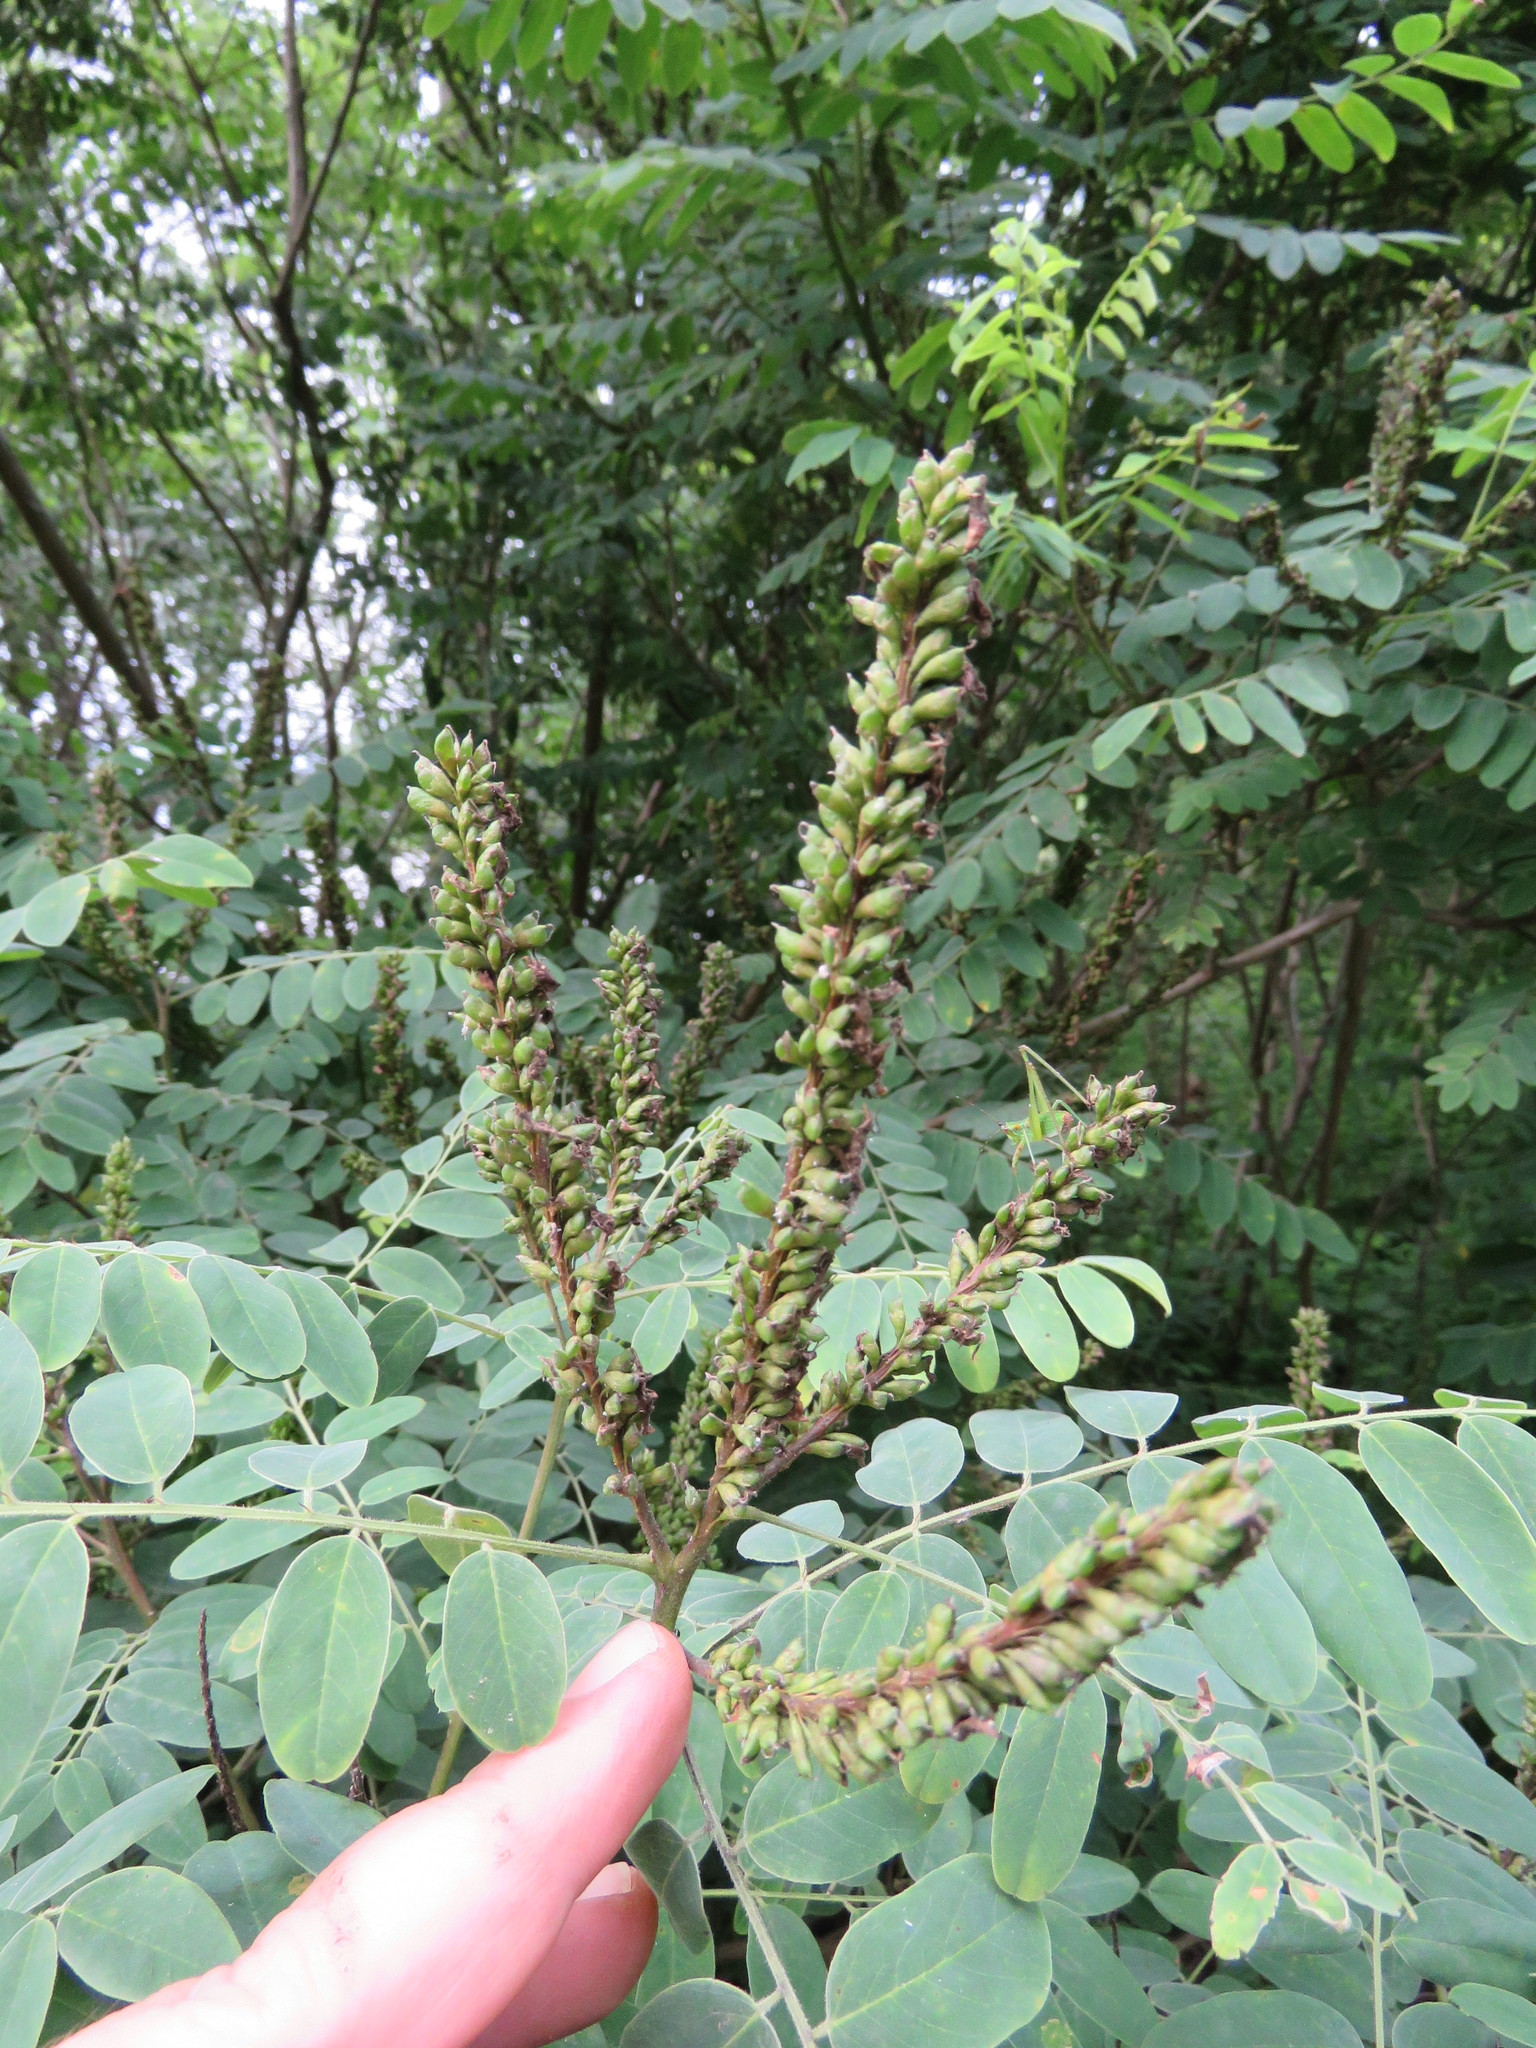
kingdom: Plantae
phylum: Tracheophyta
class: Magnoliopsida
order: Fabales
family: Fabaceae
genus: Amorpha
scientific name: Amorpha fruticosa
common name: False indigo
